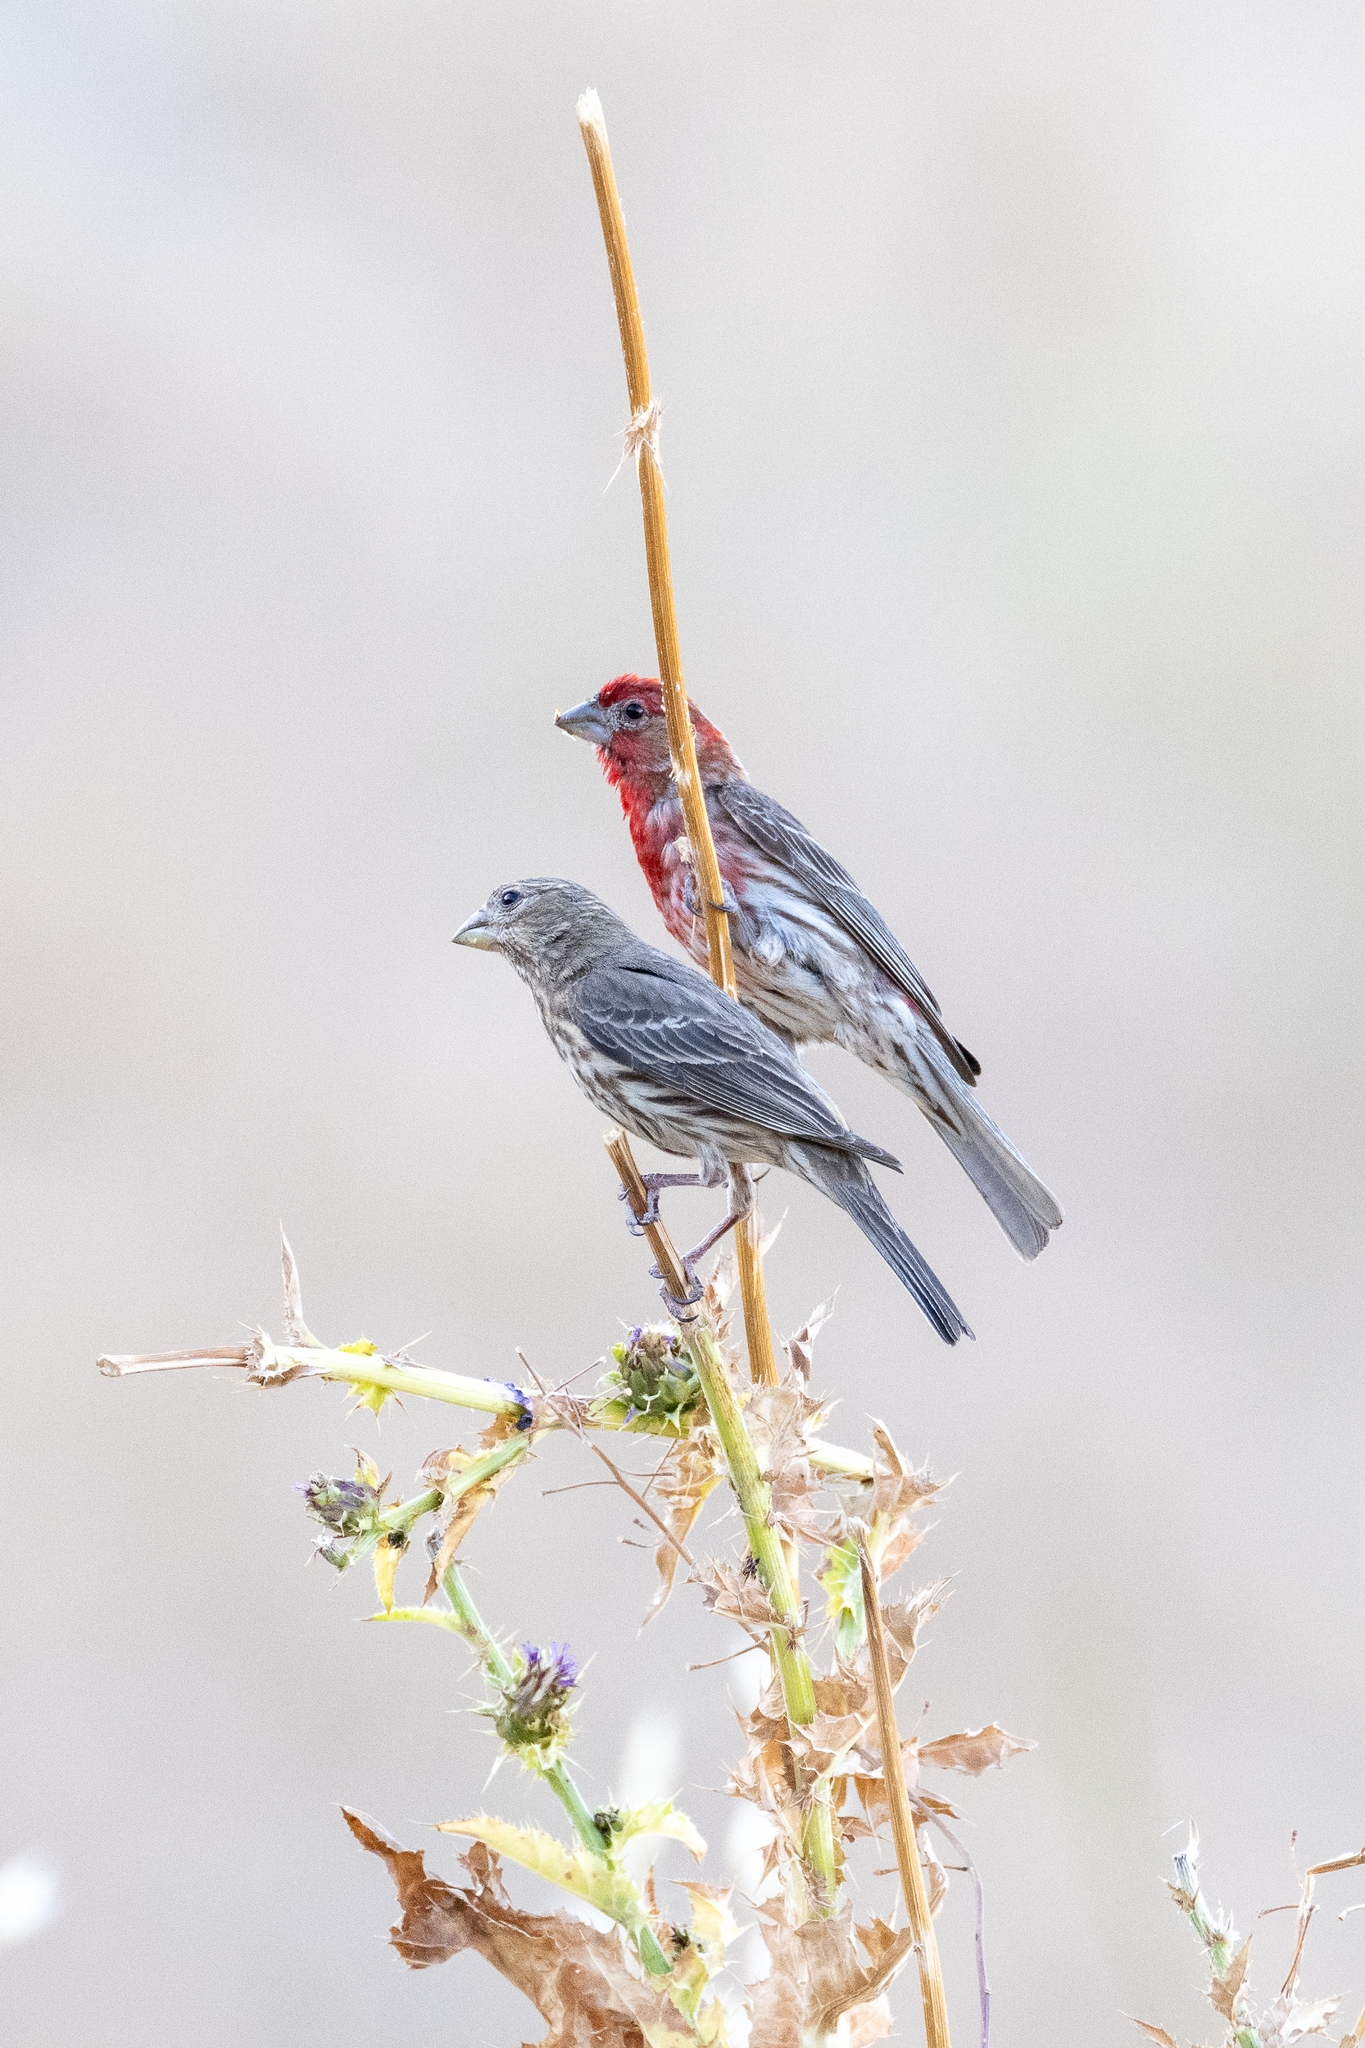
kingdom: Animalia
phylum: Chordata
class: Aves
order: Passeriformes
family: Fringillidae
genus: Haemorhous
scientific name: Haemorhous mexicanus
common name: House finch
